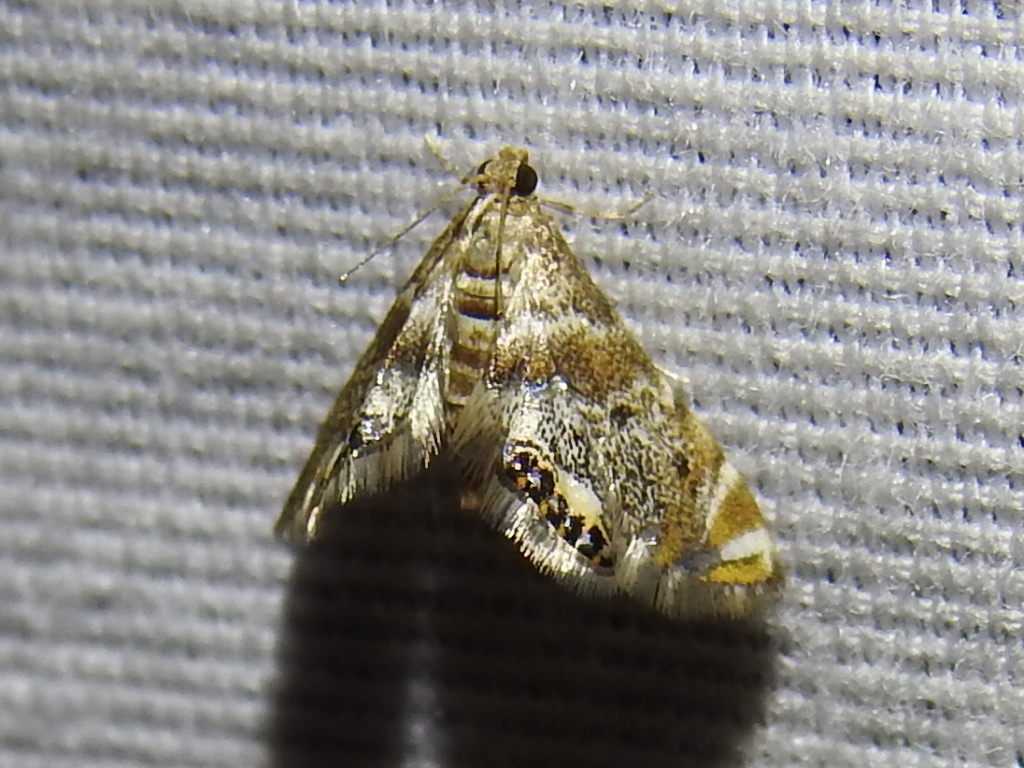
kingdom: Animalia
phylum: Arthropoda
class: Insecta
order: Lepidoptera
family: Crambidae
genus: Petrophila
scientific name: Petrophila fulicalis
